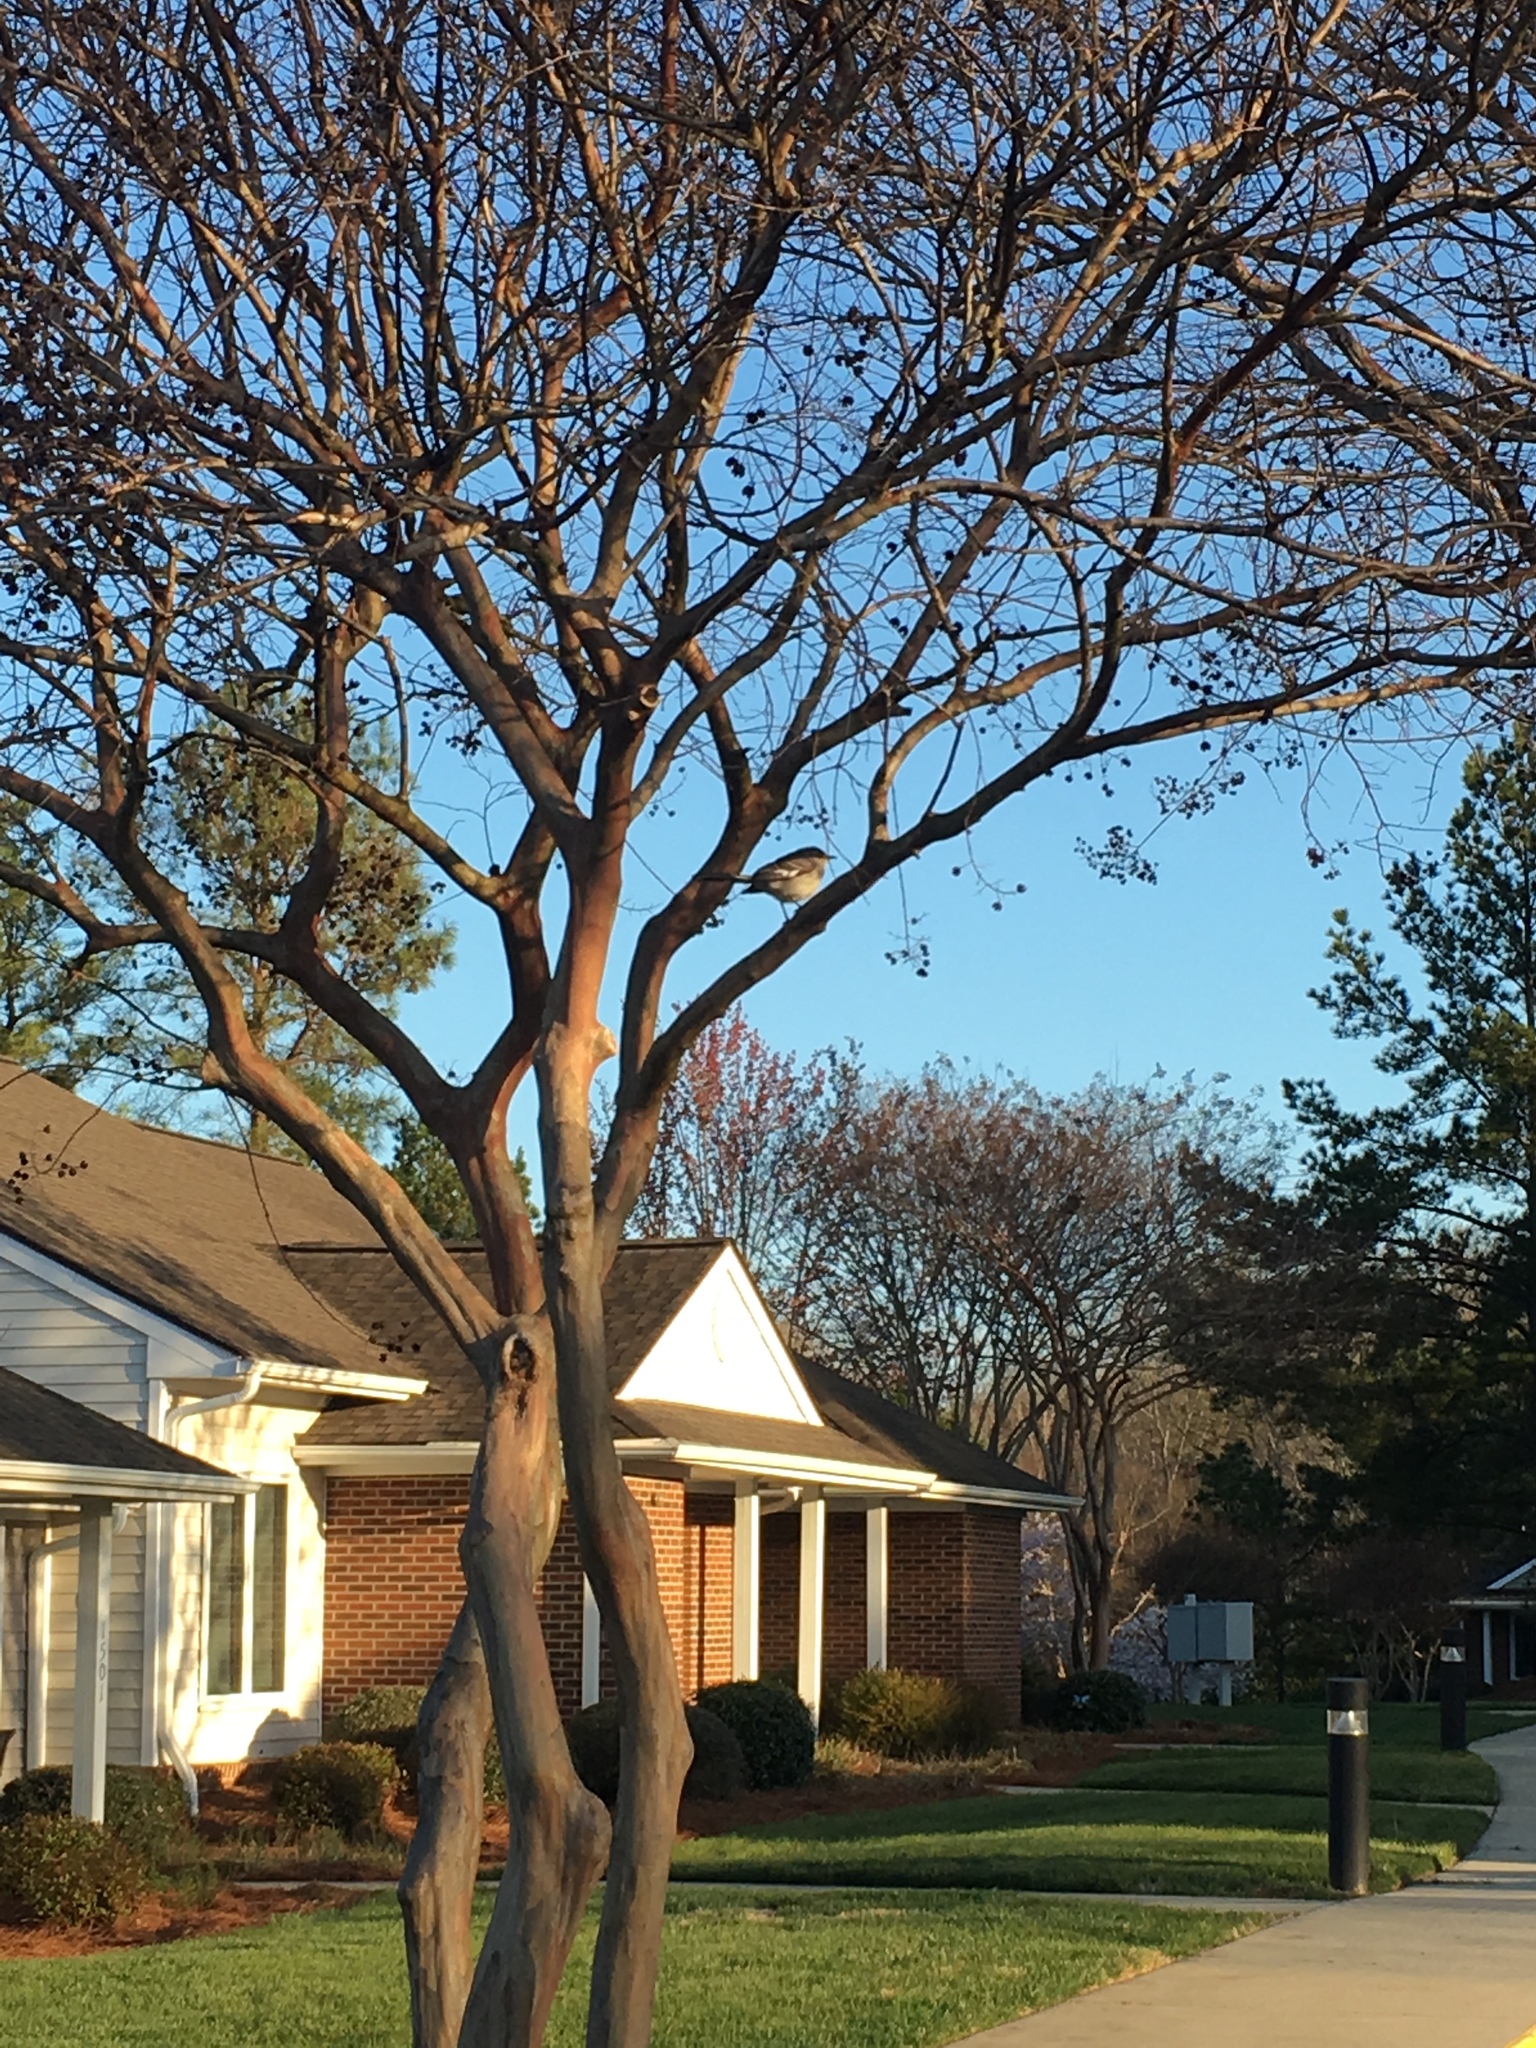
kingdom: Animalia
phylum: Chordata
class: Aves
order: Passeriformes
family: Mimidae
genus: Mimus
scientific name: Mimus polyglottos
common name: Northern mockingbird
